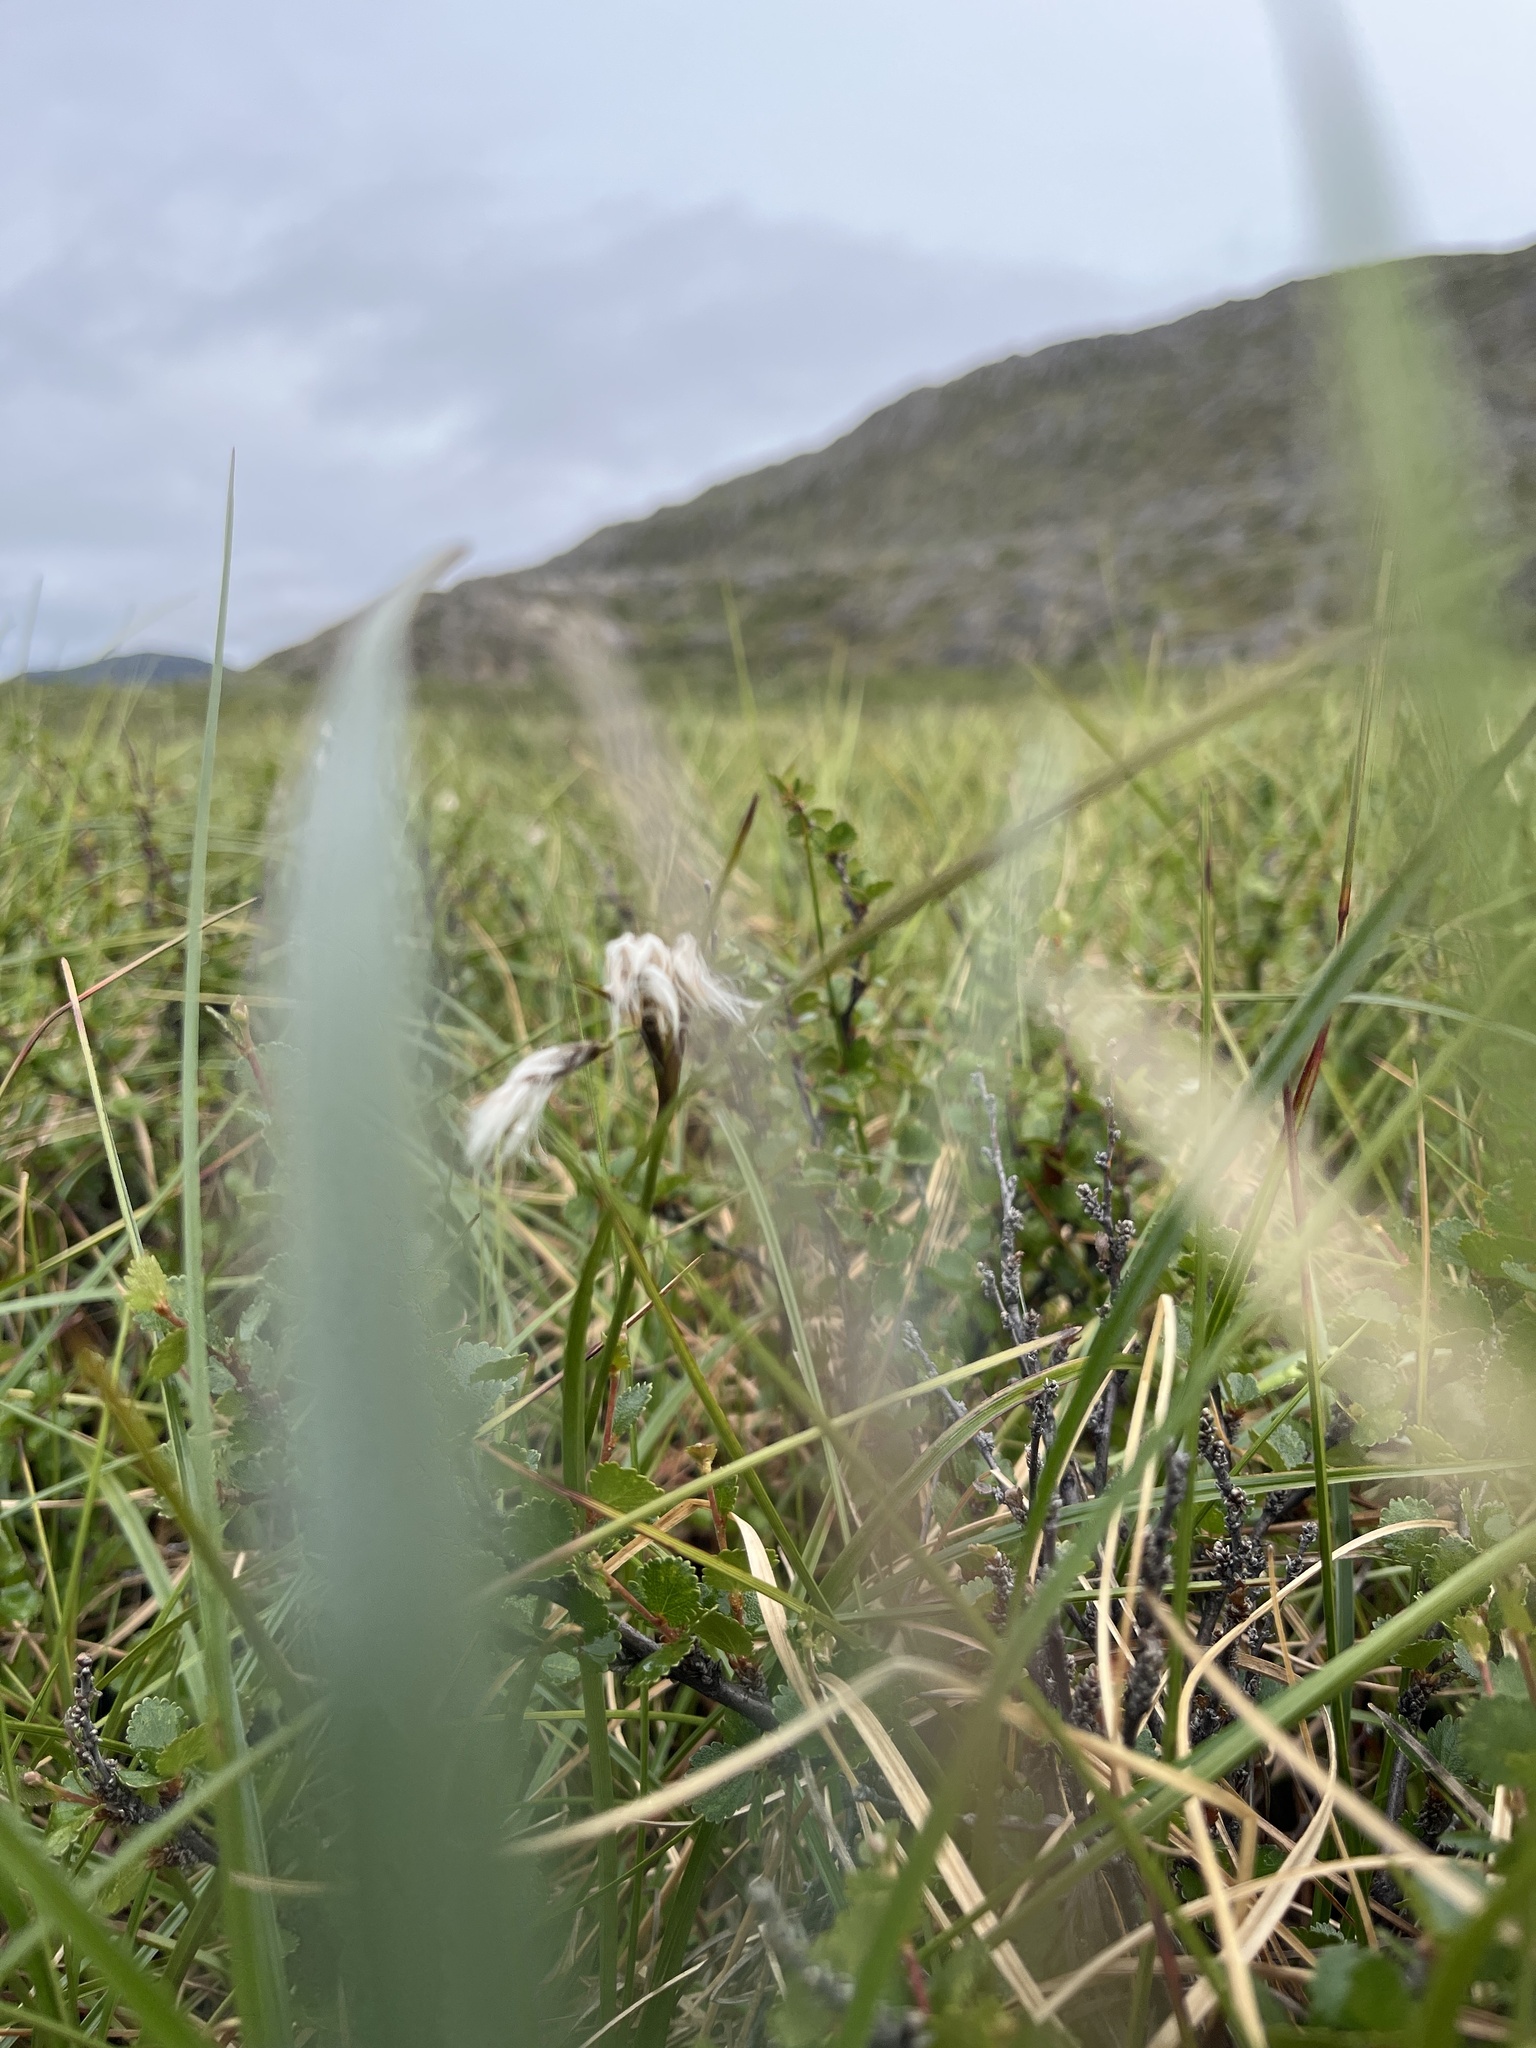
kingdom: Plantae
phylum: Tracheophyta
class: Liliopsida
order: Poales
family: Cyperaceae
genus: Eriophorum
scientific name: Eriophorum angustifolium
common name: Common cottongrass
